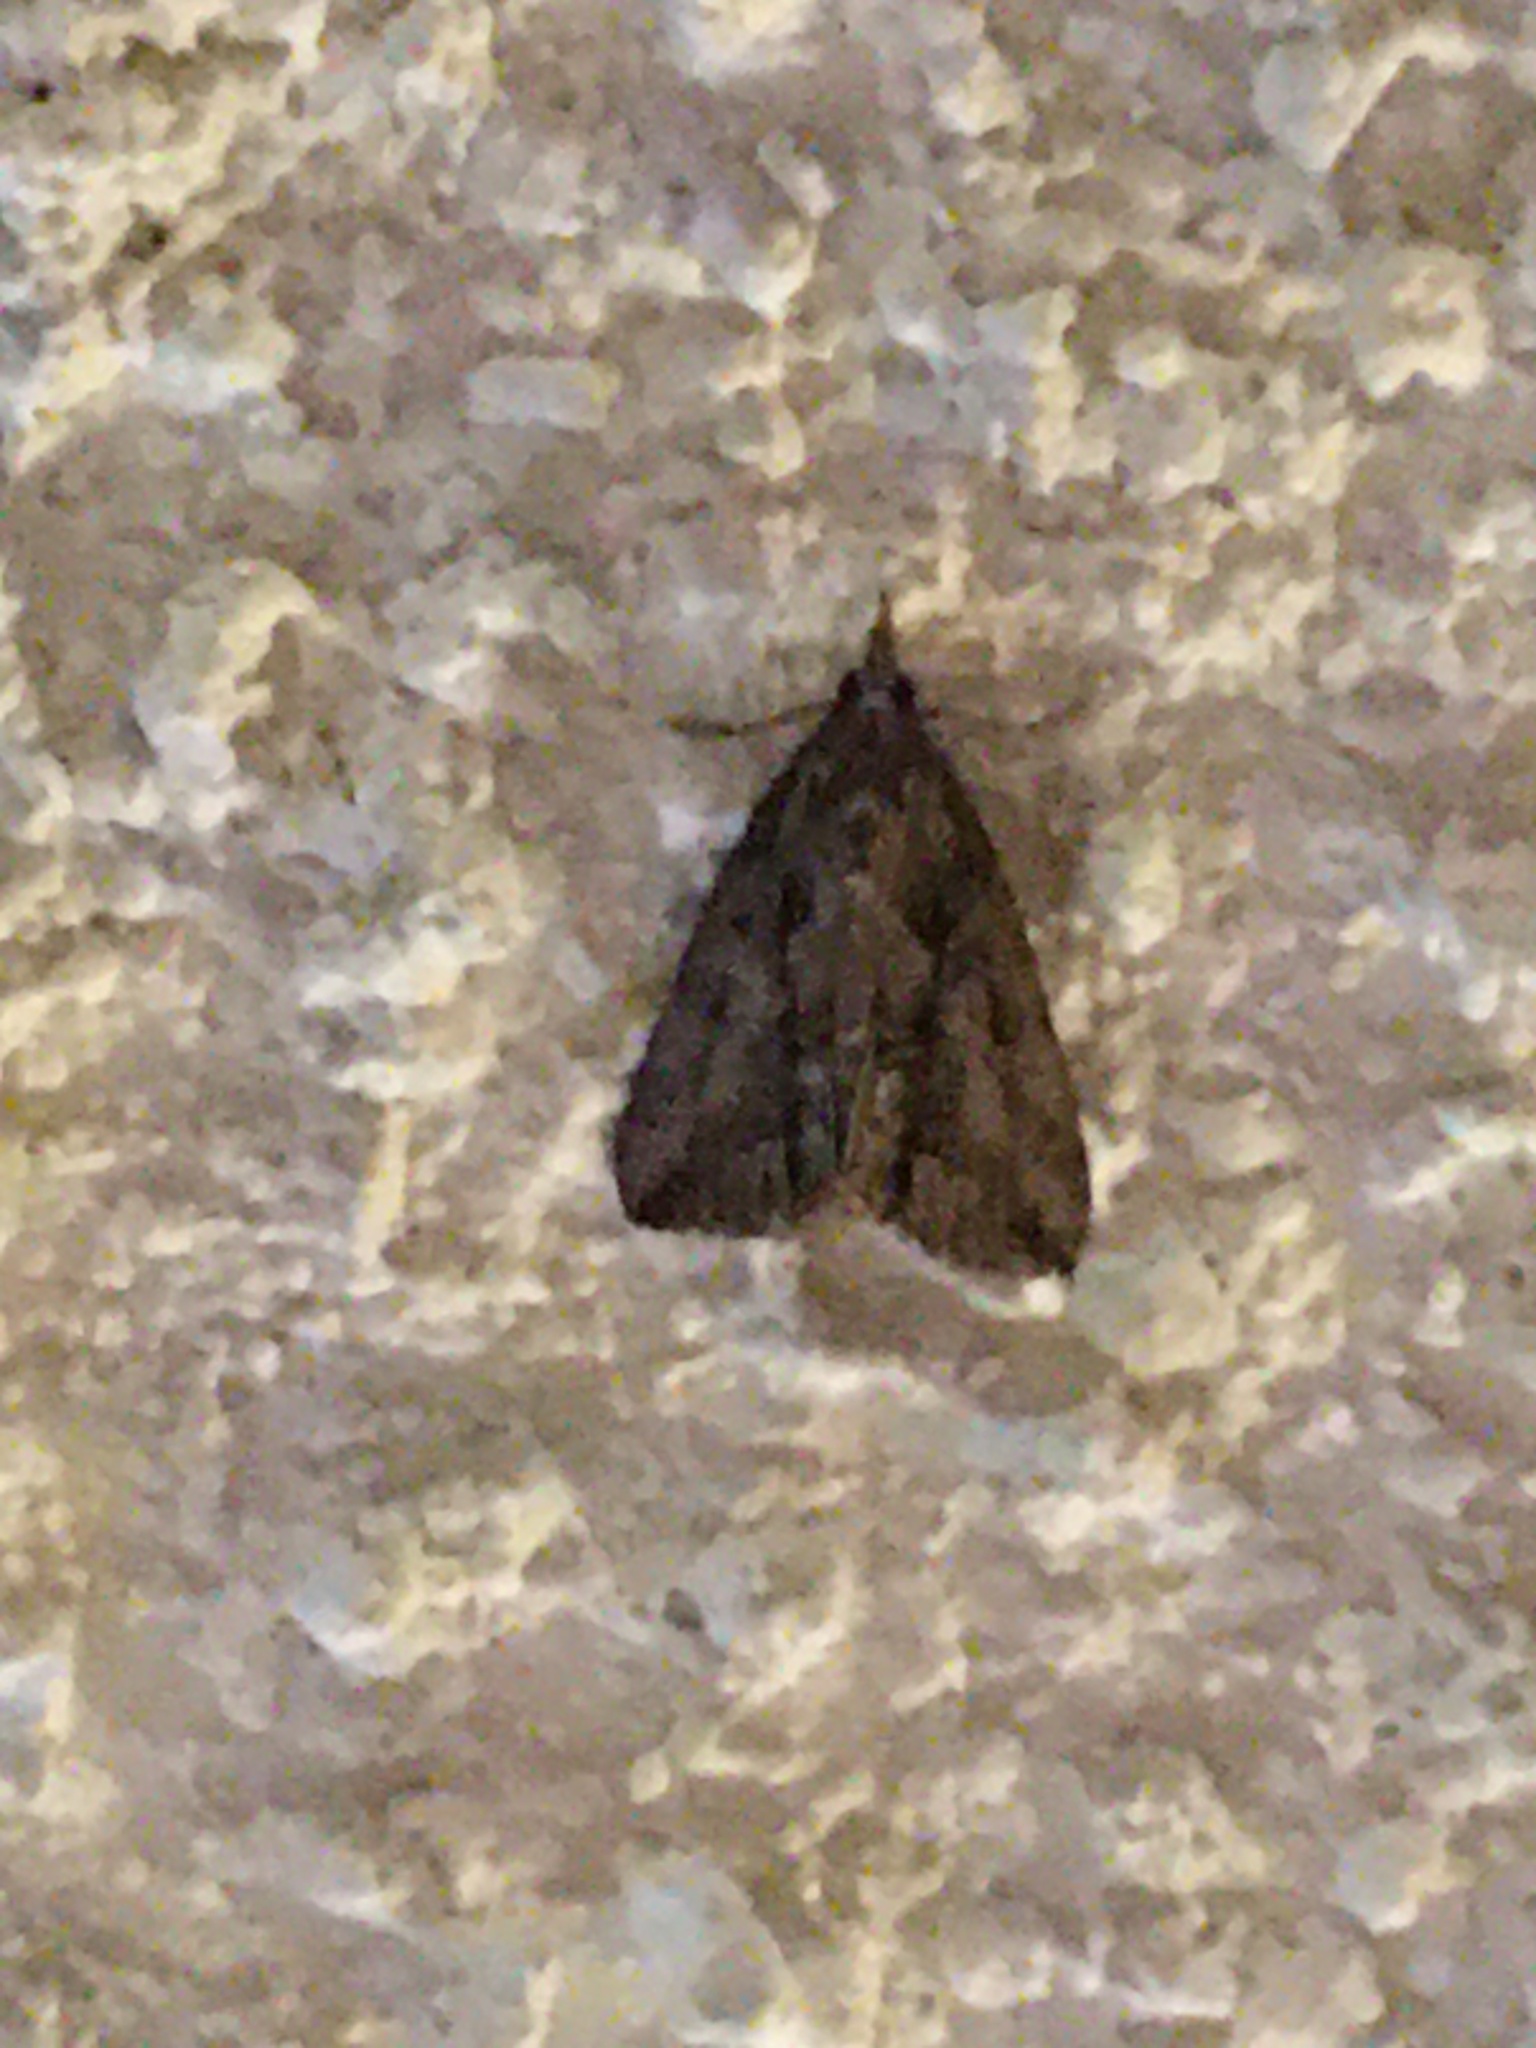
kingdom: Animalia
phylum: Arthropoda
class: Insecta
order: Lepidoptera
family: Erebidae
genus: Hypena
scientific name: Hypena scabra
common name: Green cloverworm
